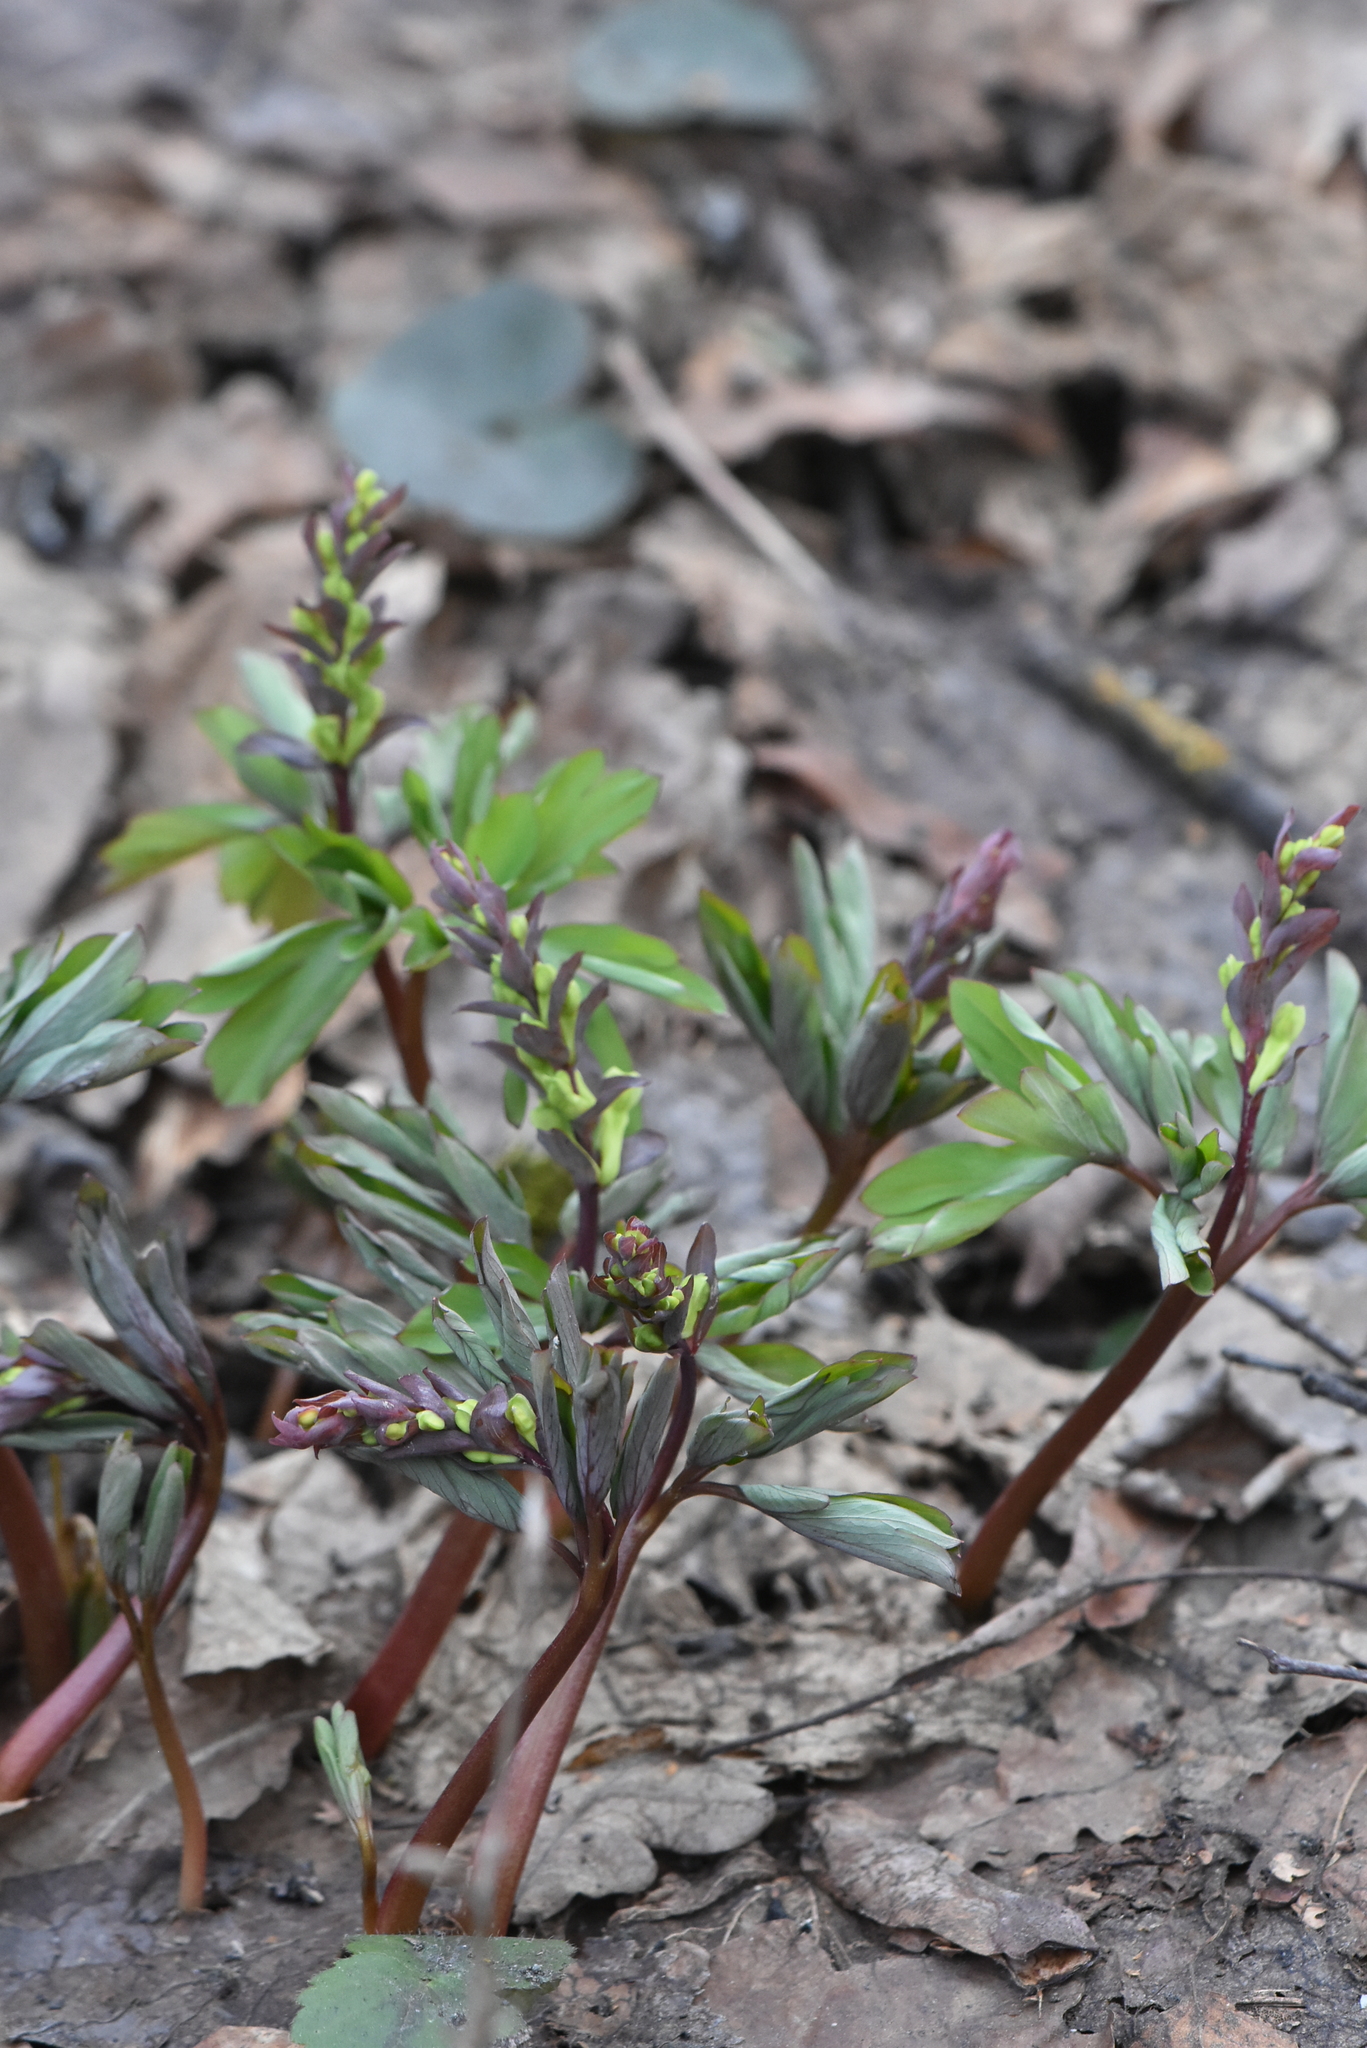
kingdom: Plantae
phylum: Tracheophyta
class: Magnoliopsida
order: Ranunculales
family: Papaveraceae
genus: Corydalis
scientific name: Corydalis cava
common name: Hollowroot
